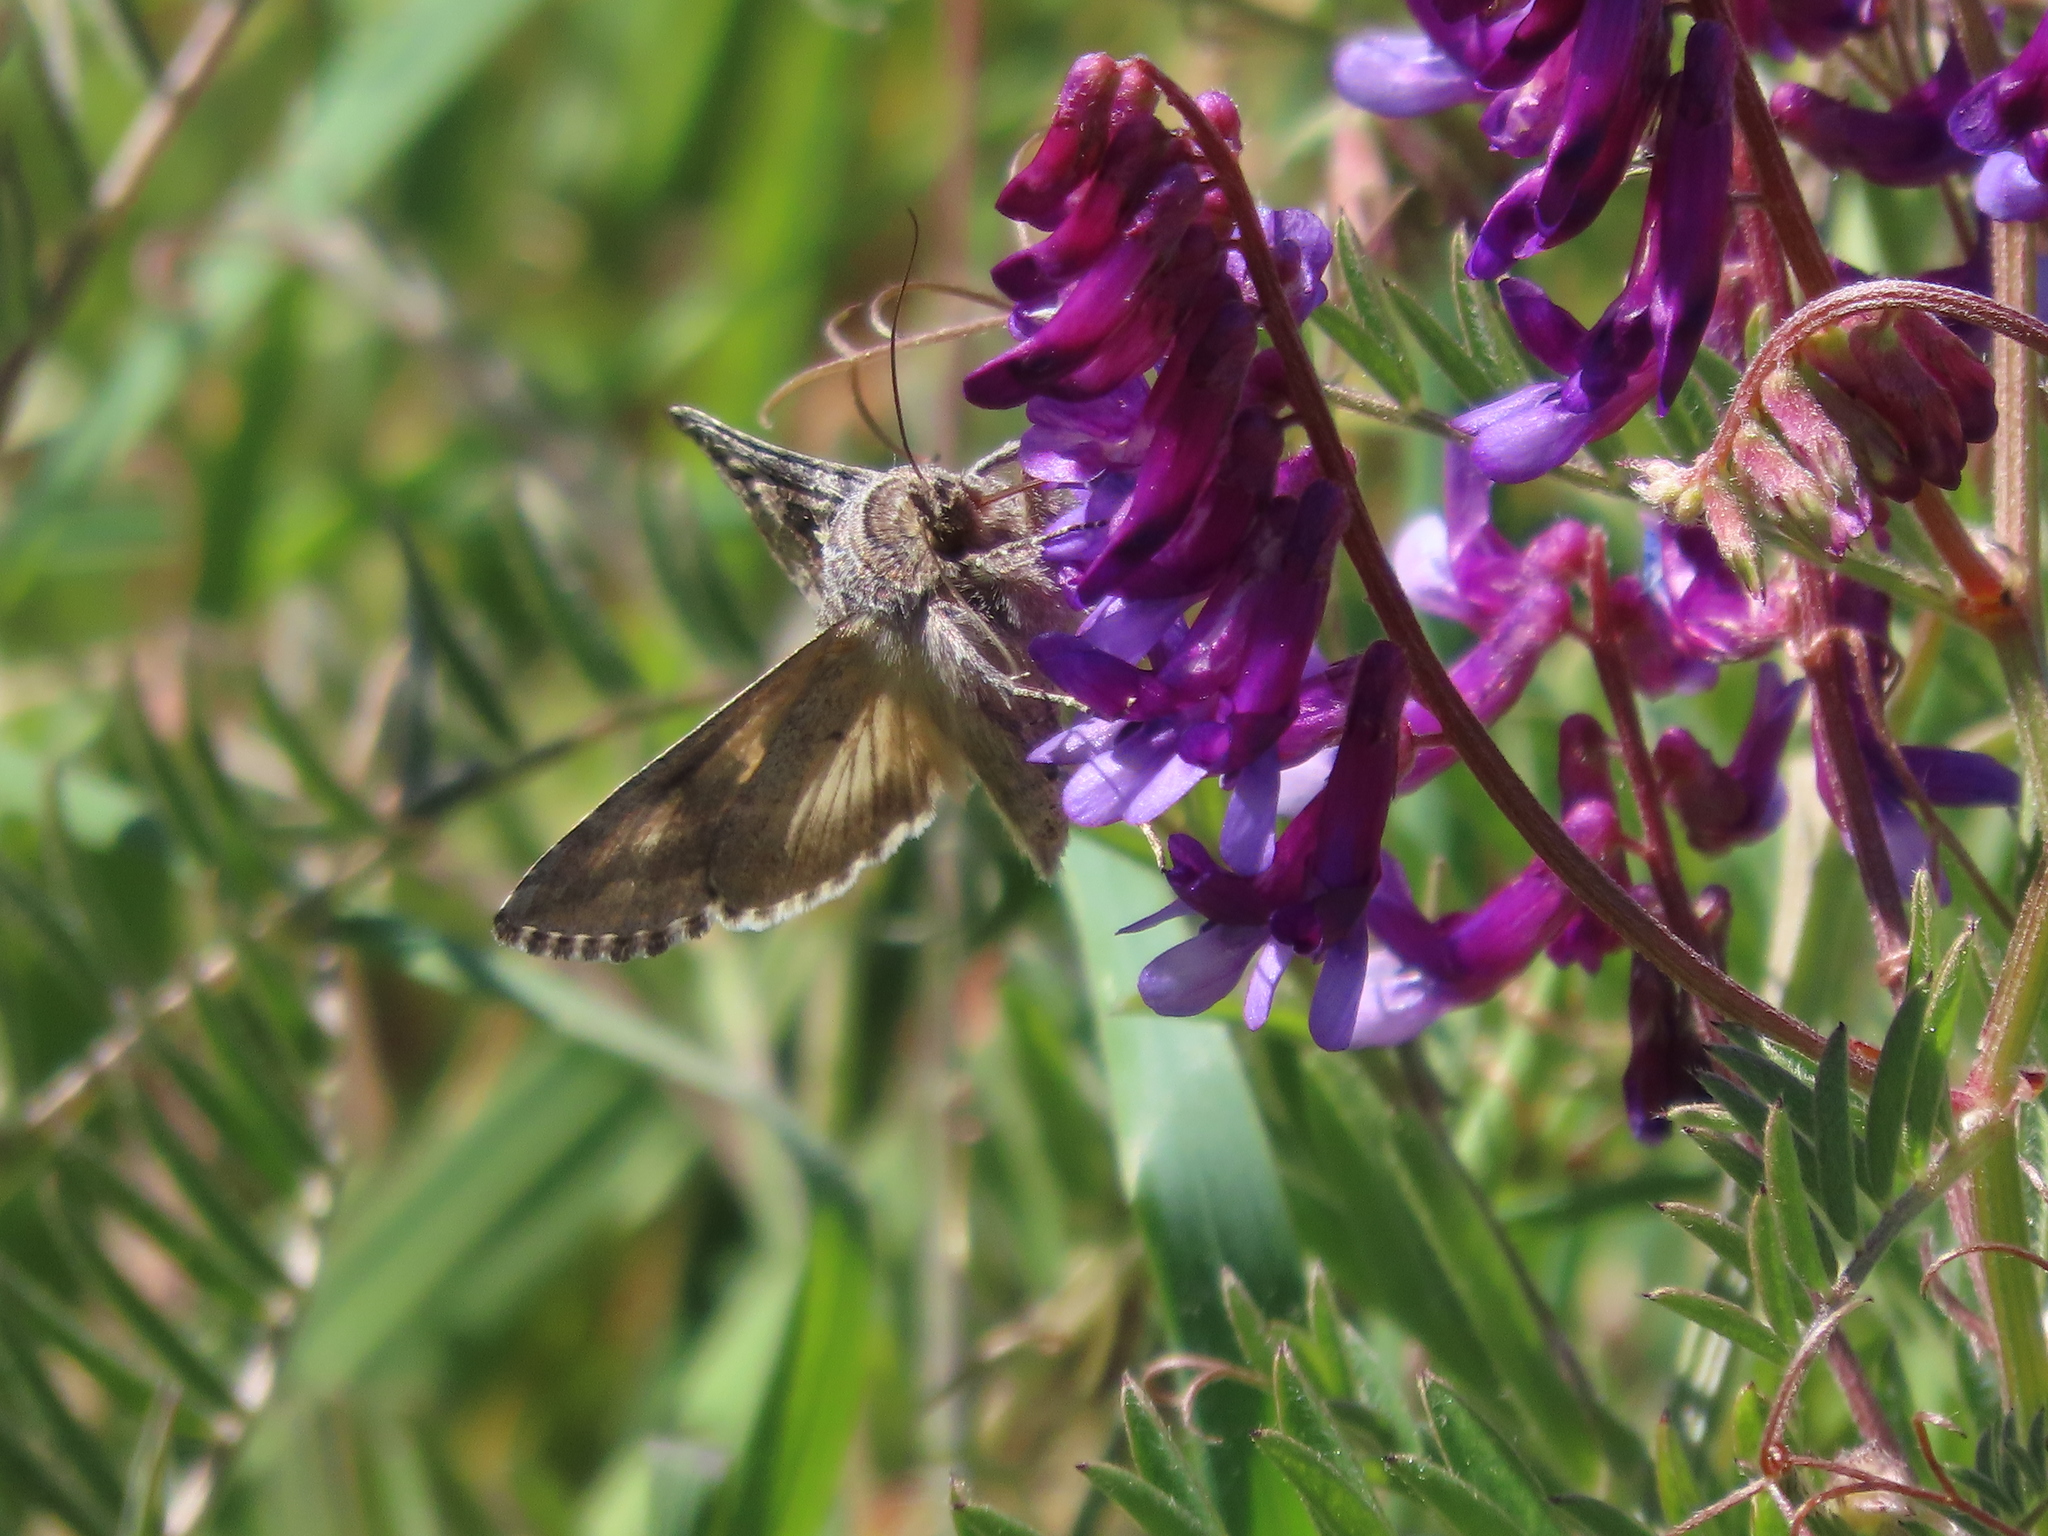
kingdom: Animalia
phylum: Arthropoda
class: Insecta
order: Lepidoptera
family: Noctuidae
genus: Autographa
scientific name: Autographa californica
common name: Alfalfa looper
